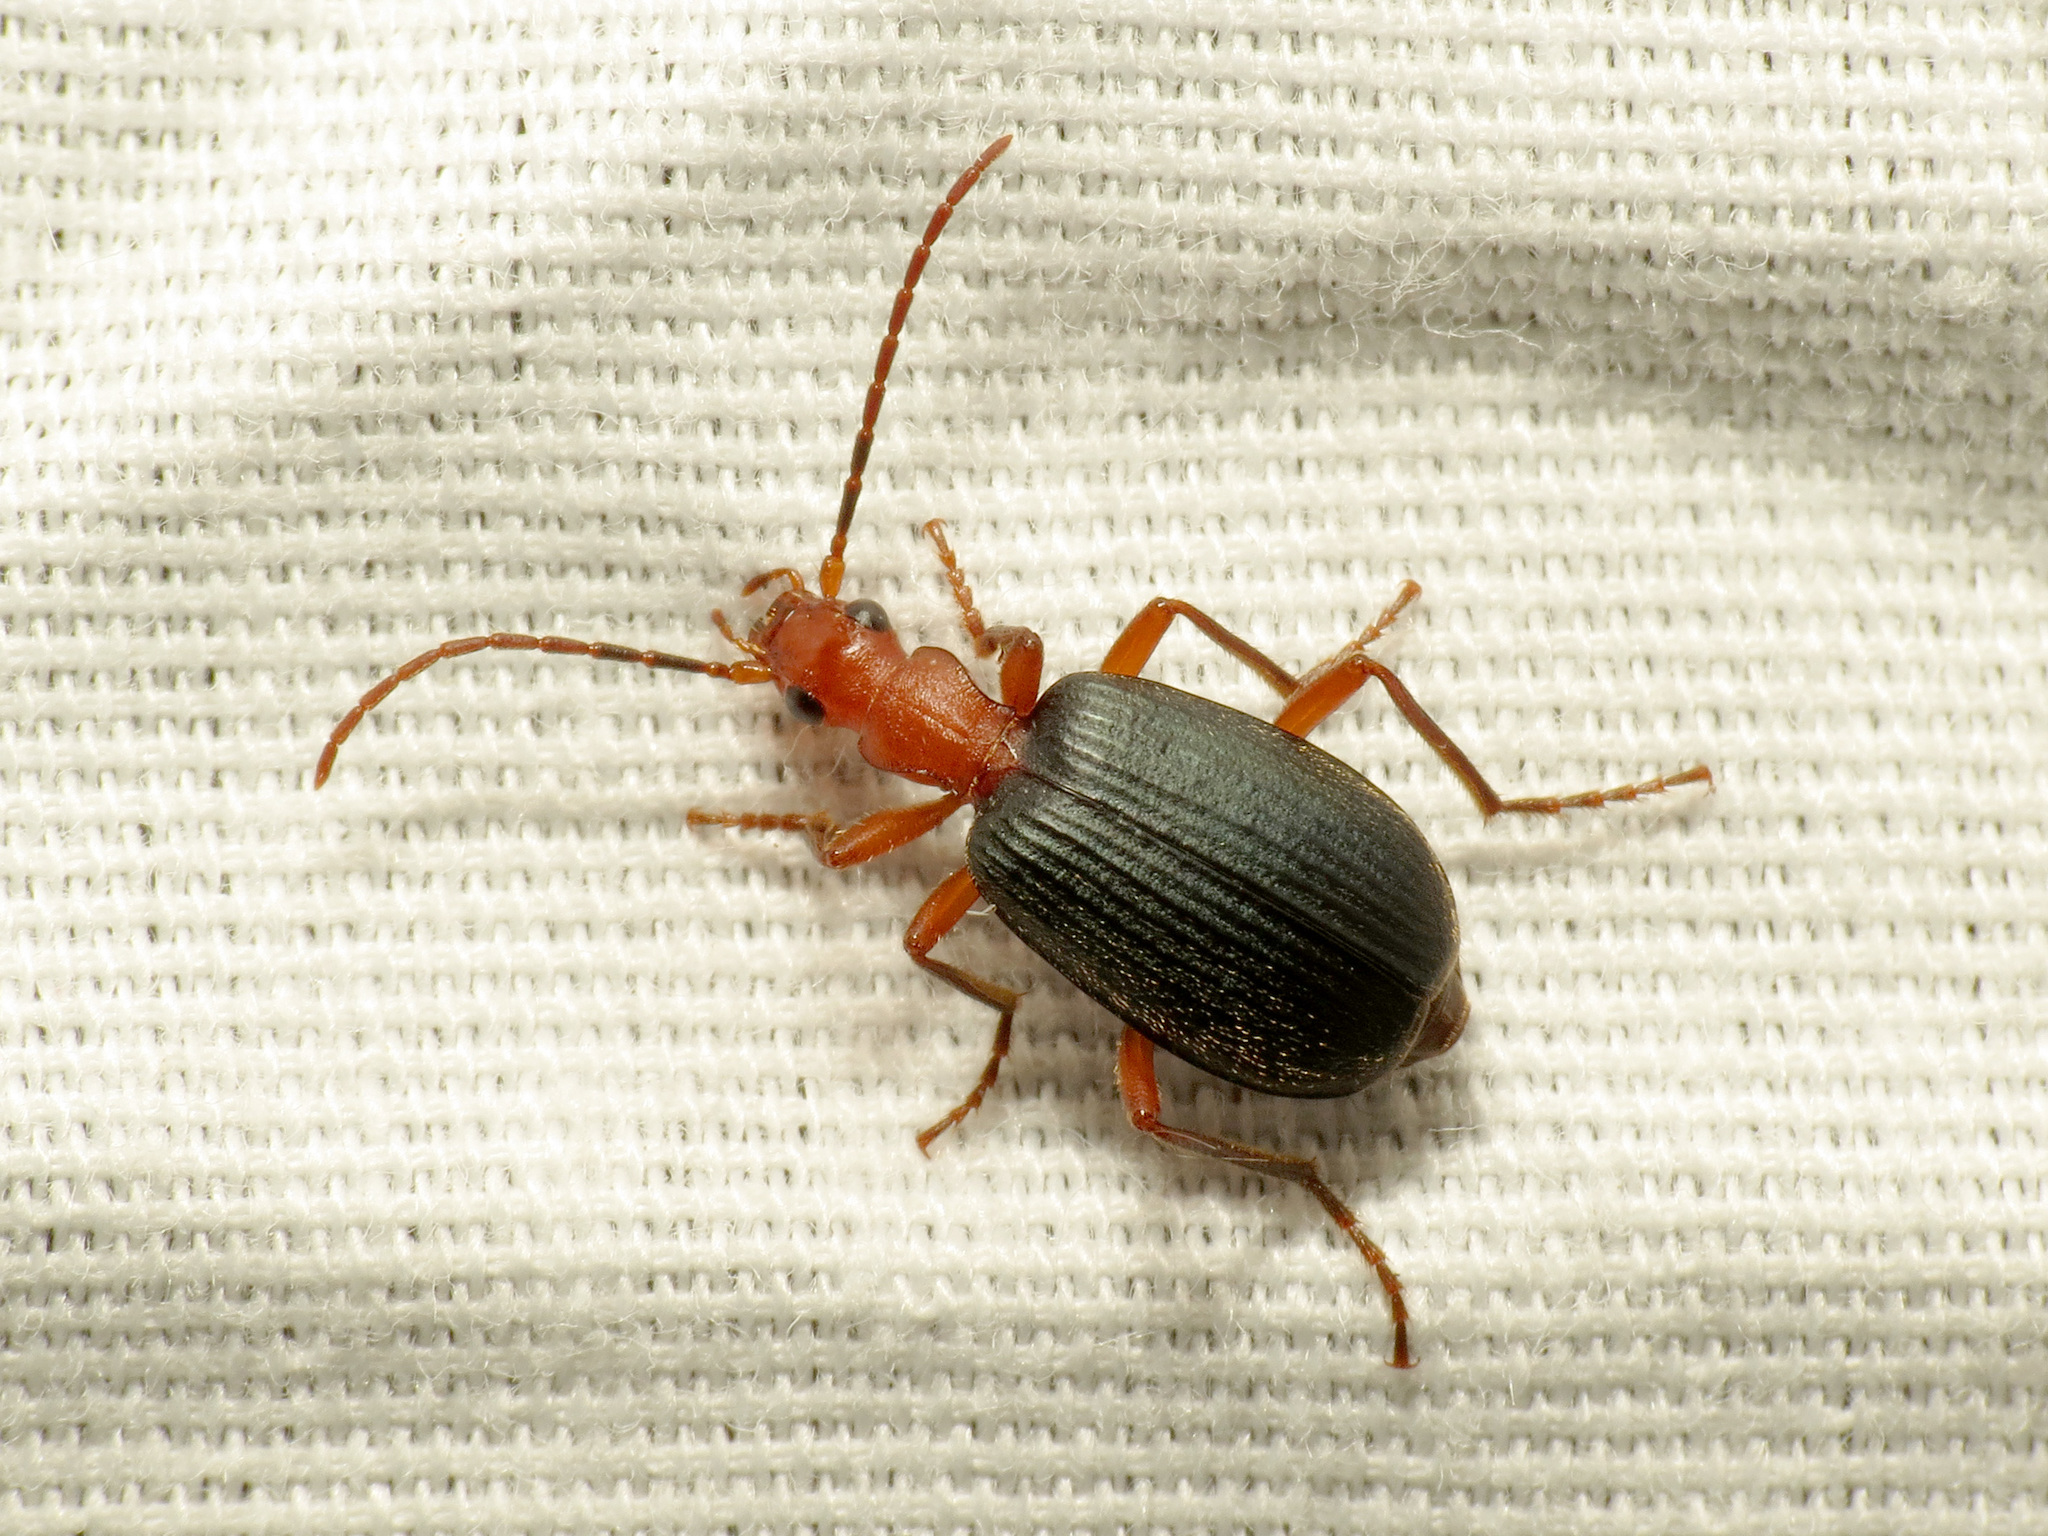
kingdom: Animalia
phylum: Arthropoda
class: Insecta
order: Coleoptera
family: Carabidae
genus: Brachinus
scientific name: Brachinus elongatulus
